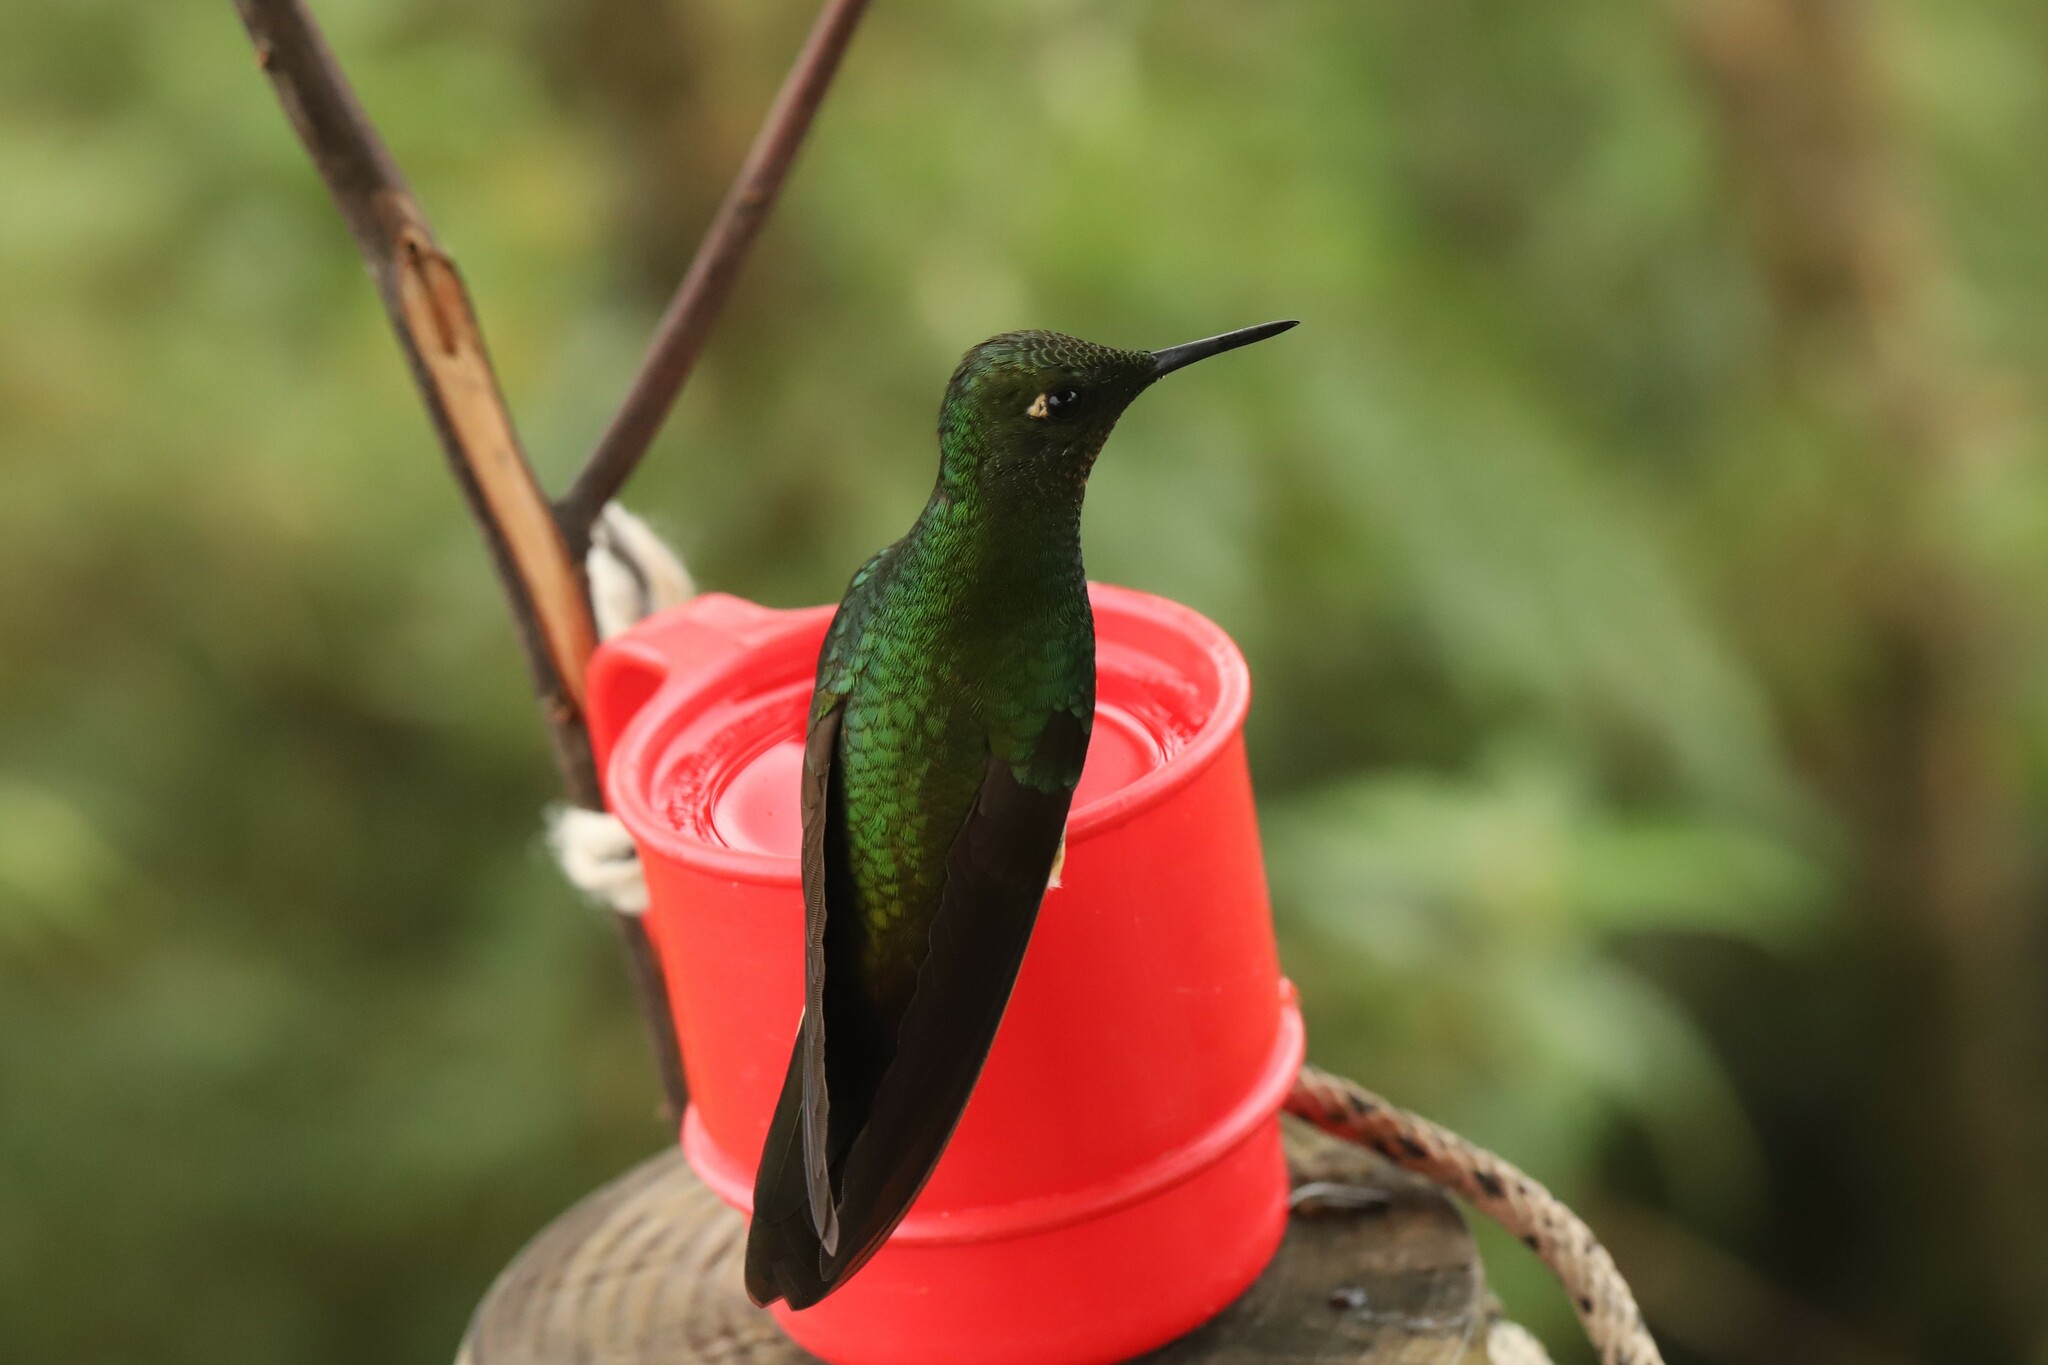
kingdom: Animalia
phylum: Chordata
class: Aves
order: Apodiformes
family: Trochilidae
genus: Boissonneaua
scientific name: Boissonneaua flavescens
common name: Buff-tailed coronet
